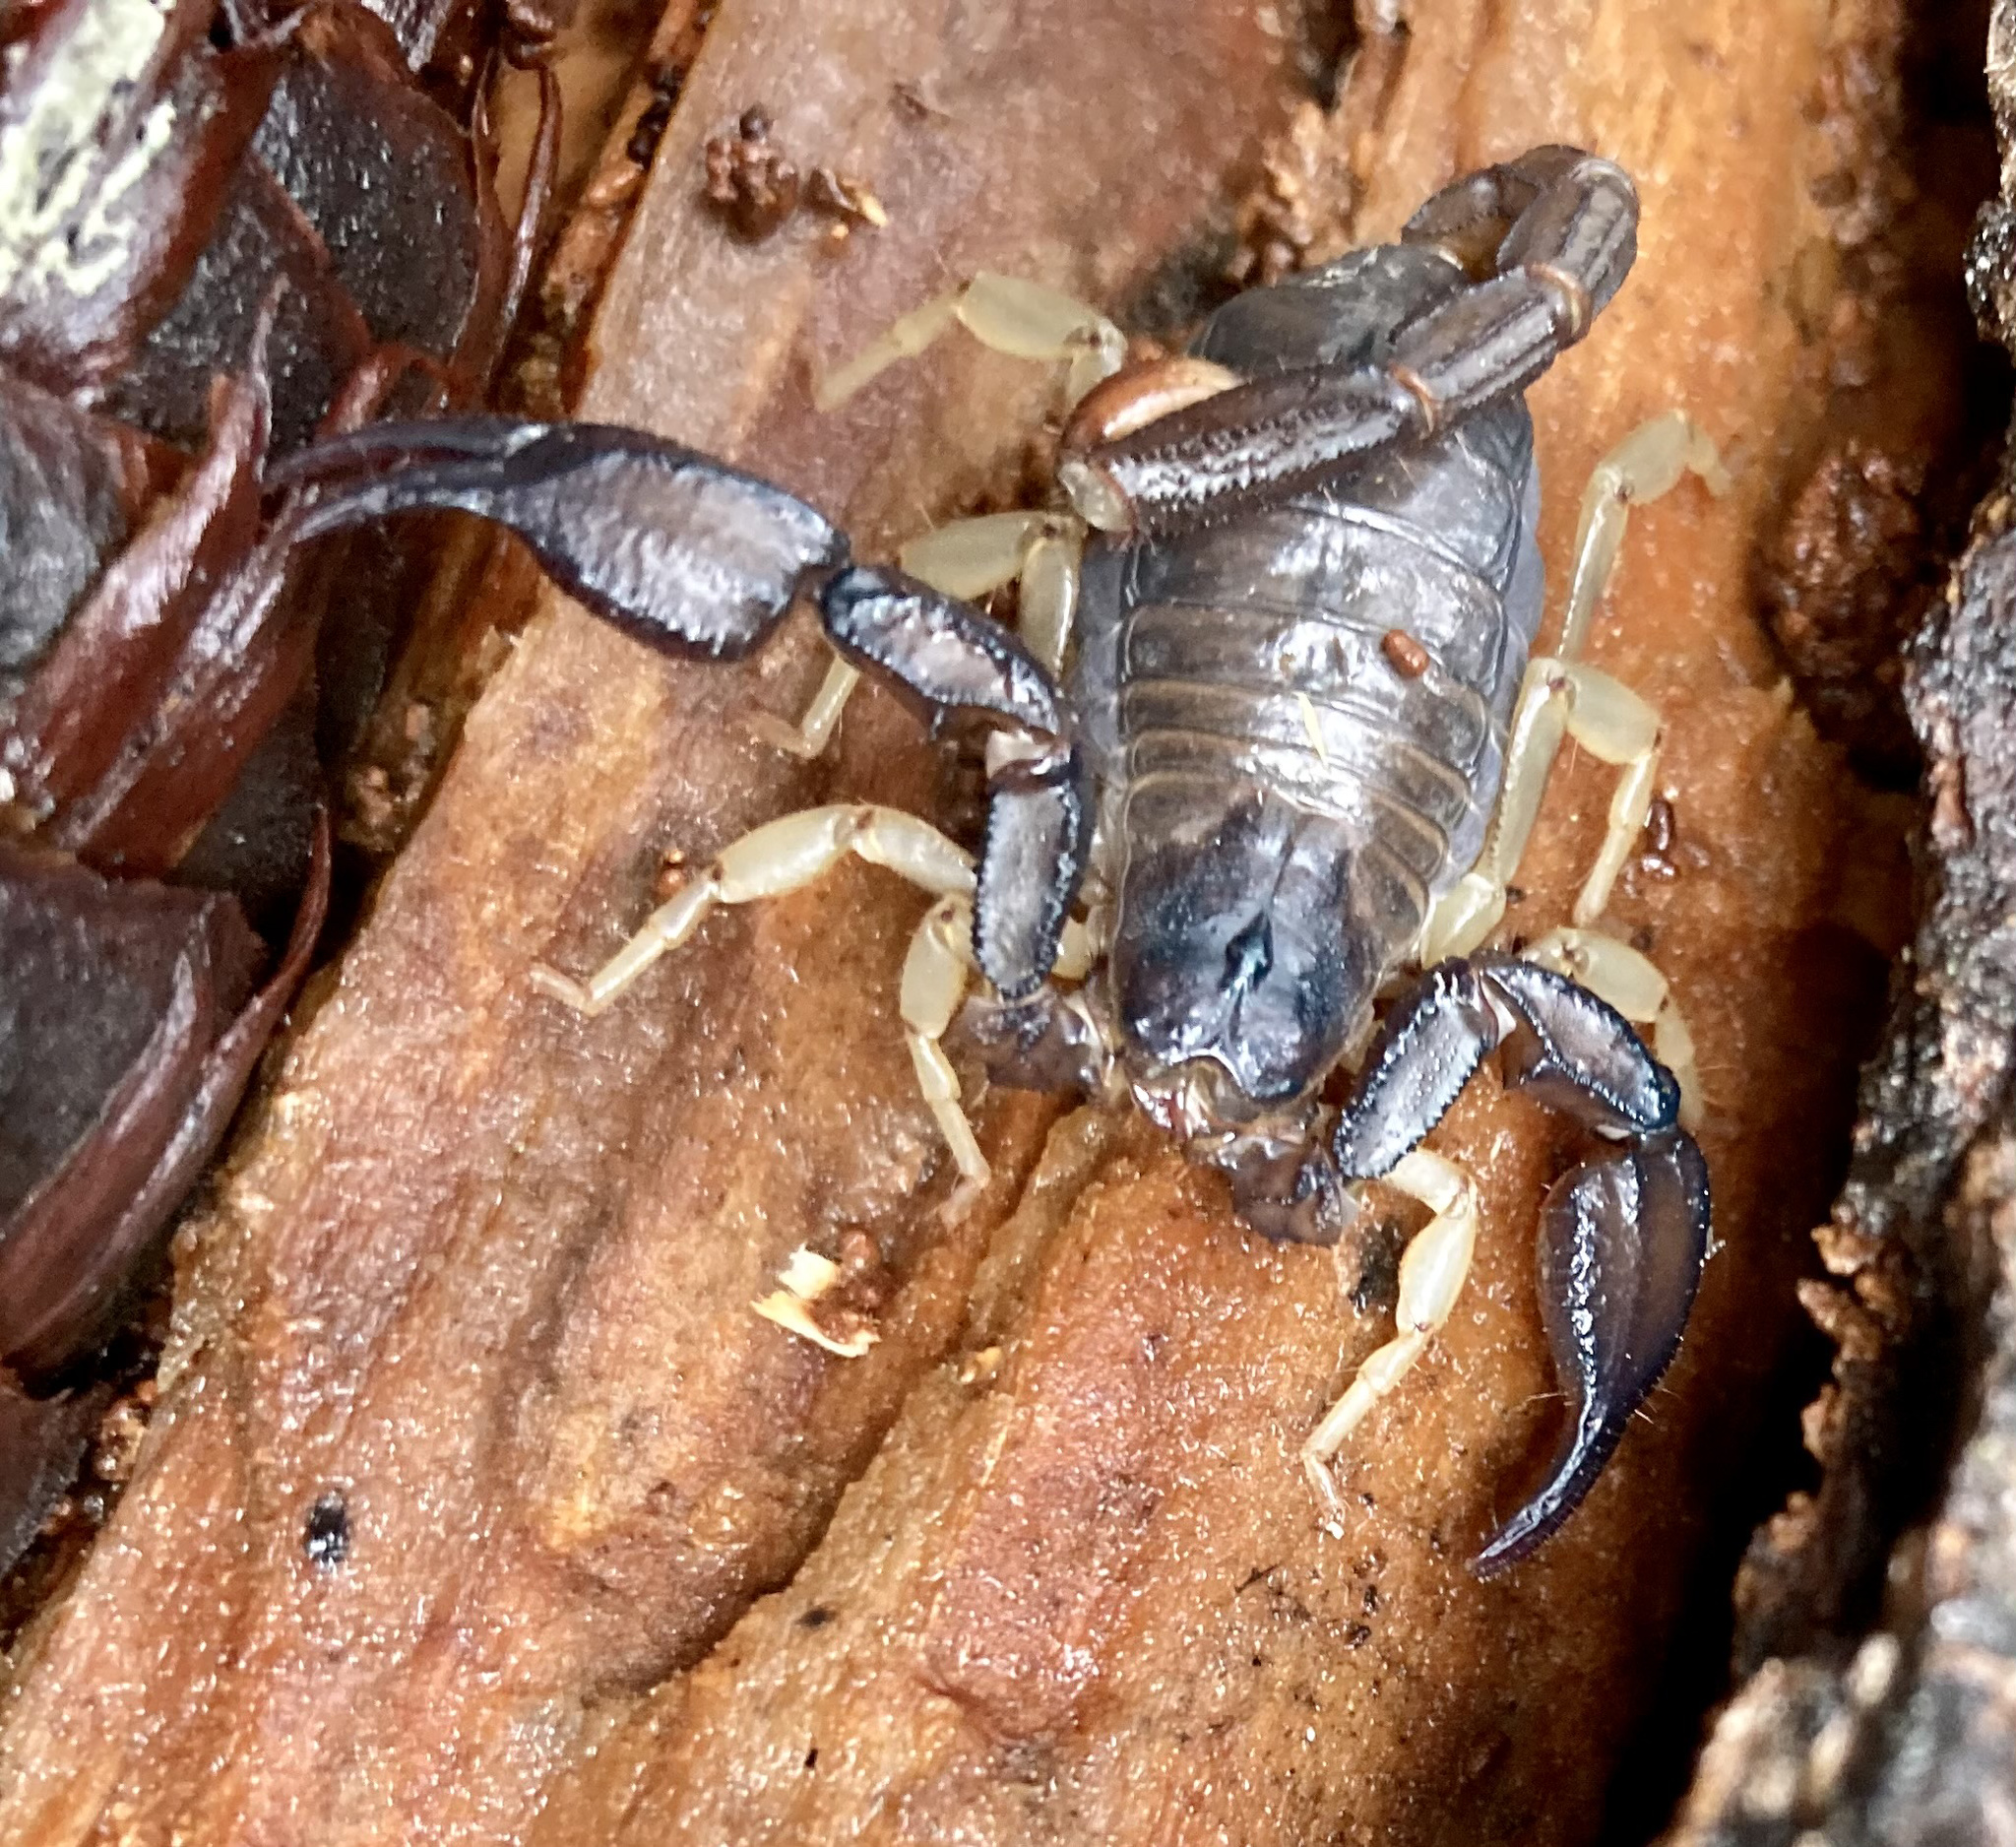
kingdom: Animalia
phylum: Arthropoda
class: Arachnida
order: Scorpiones
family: Chactidae
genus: Uroctonus
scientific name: Uroctonus mordax
